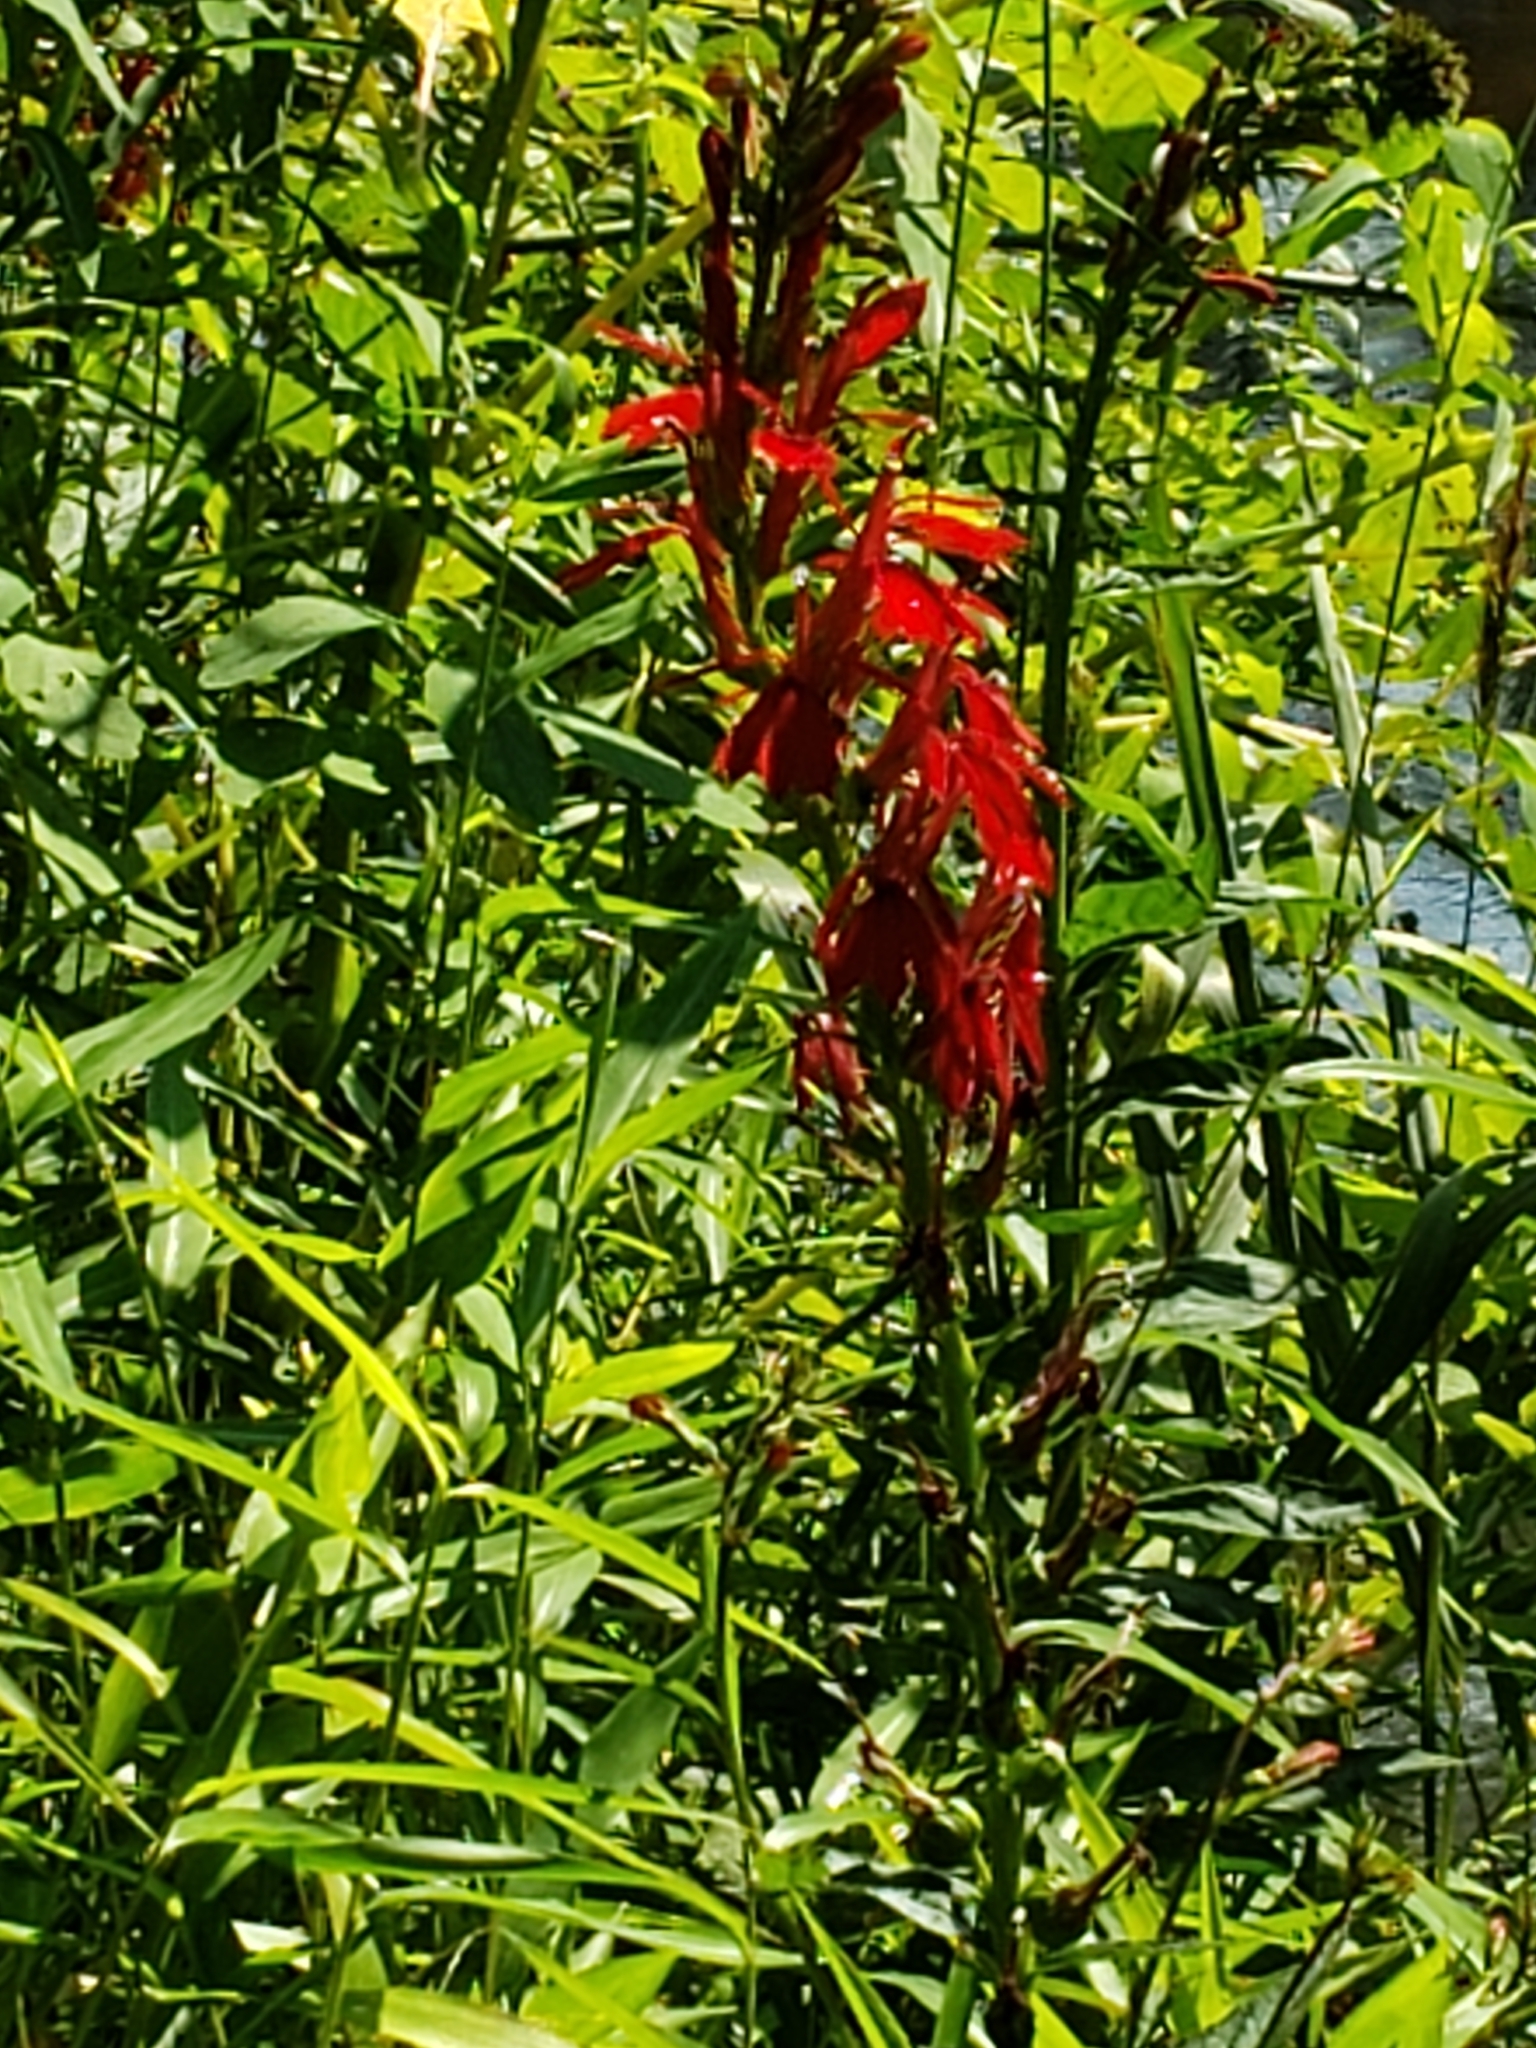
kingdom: Plantae
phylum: Tracheophyta
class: Magnoliopsida
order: Asterales
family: Campanulaceae
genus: Lobelia
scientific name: Lobelia cardinalis
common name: Cardinal flower
